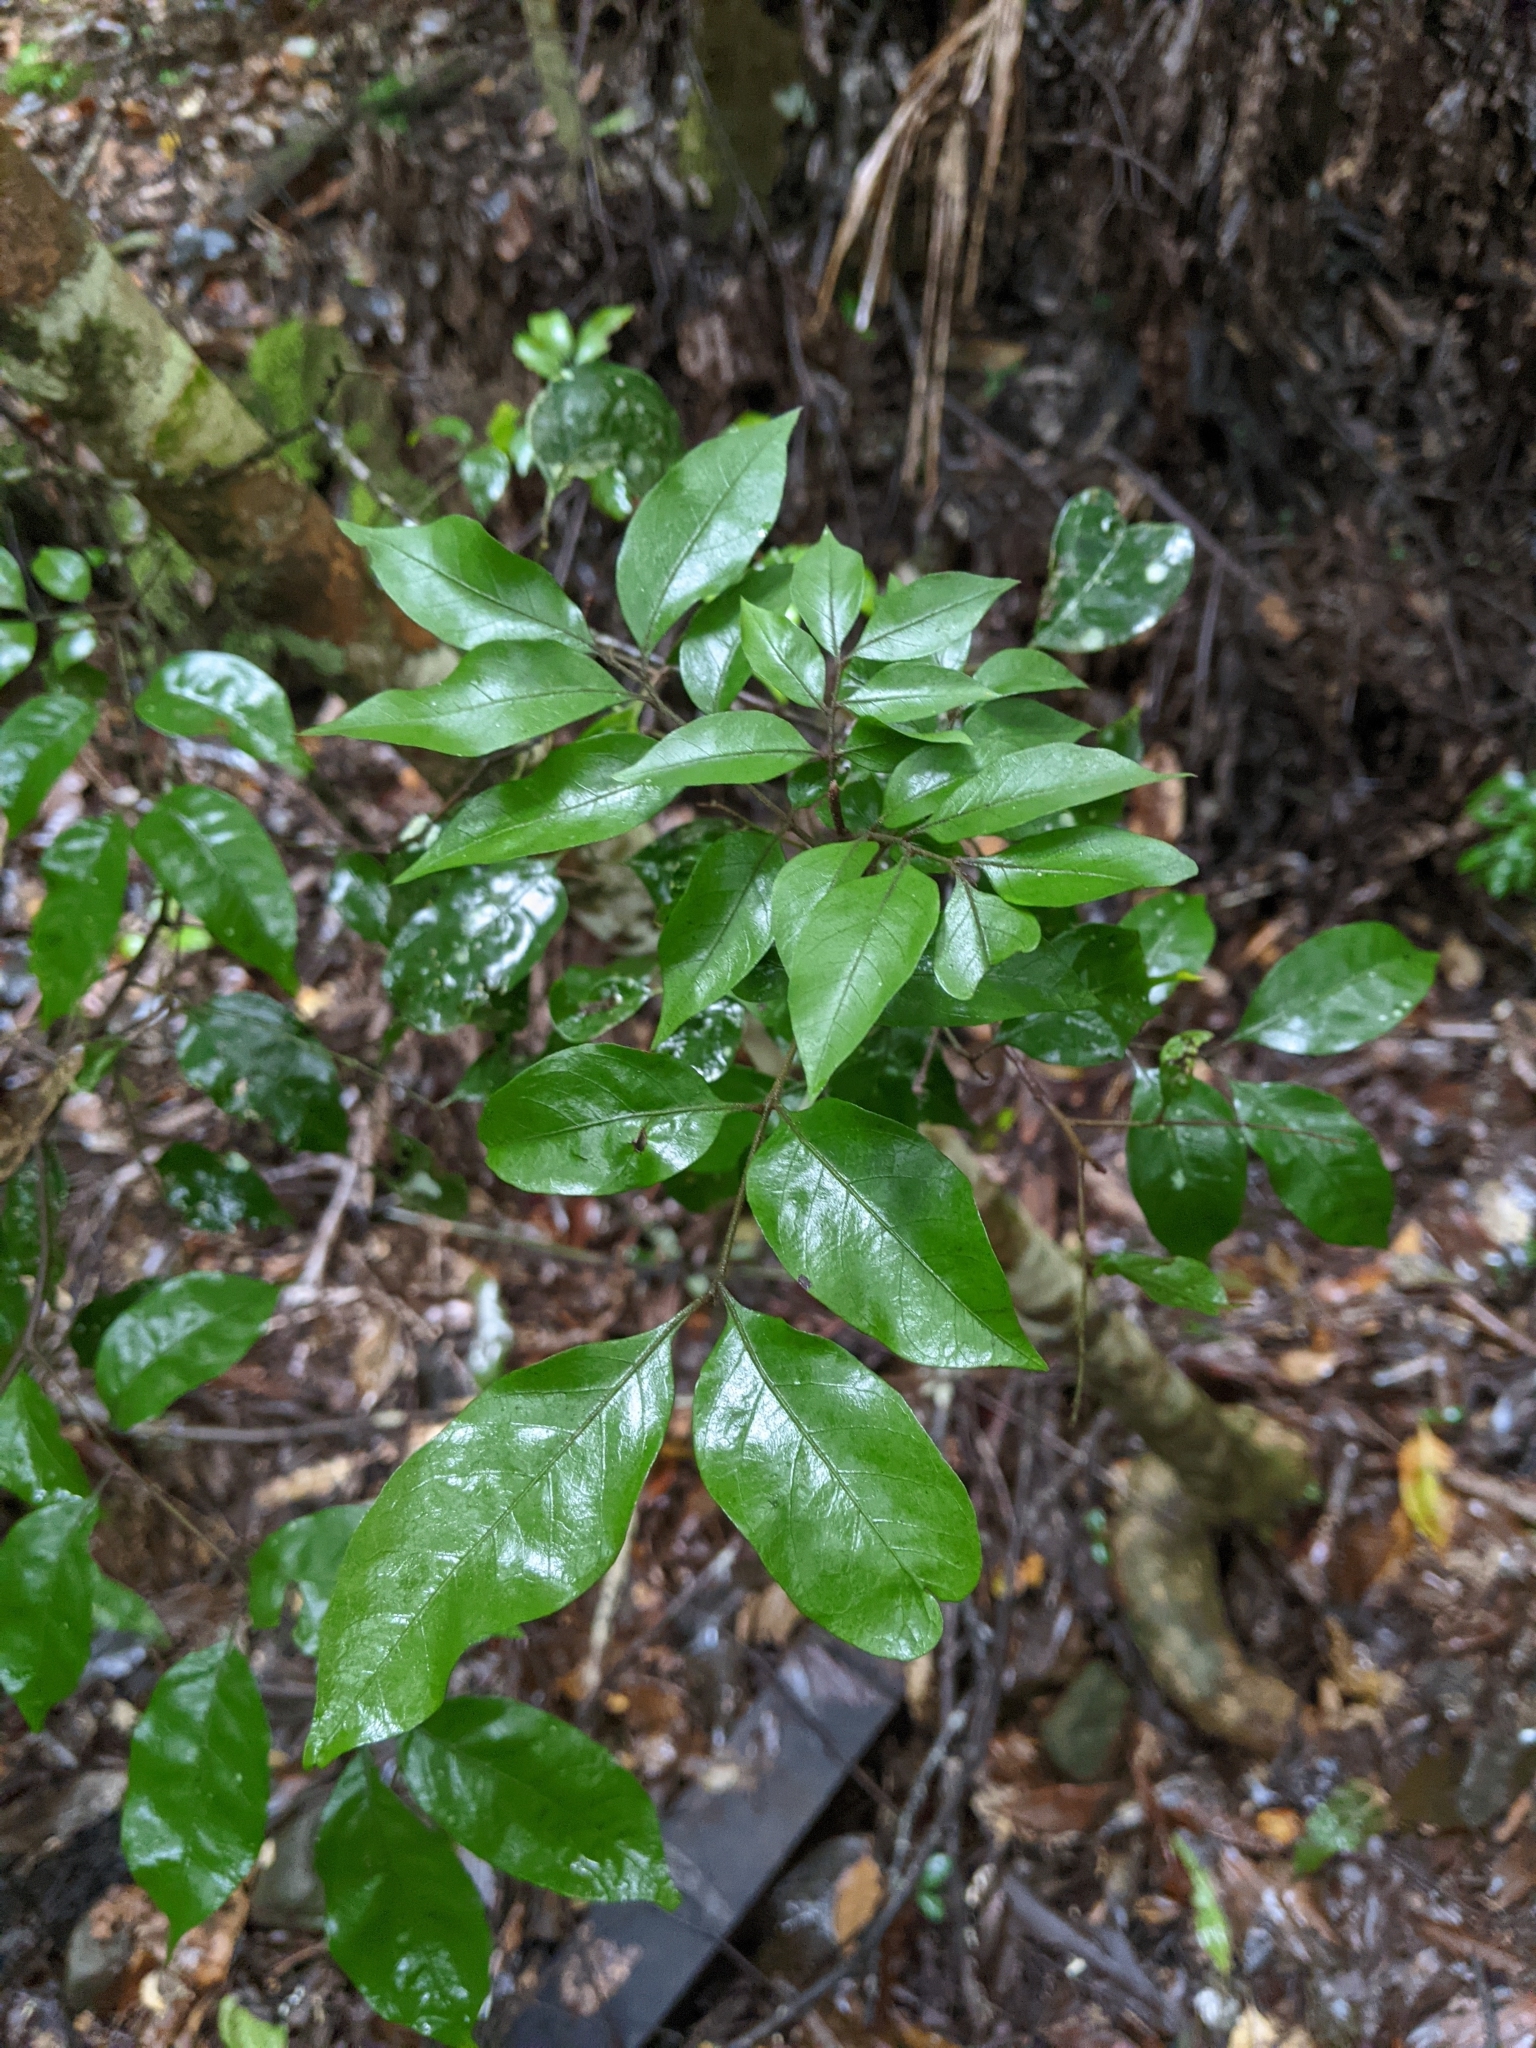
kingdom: Plantae
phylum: Tracheophyta
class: Magnoliopsida
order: Sapindales
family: Sapindaceae
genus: Sarcopteryx
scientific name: Sarcopteryx stipata
